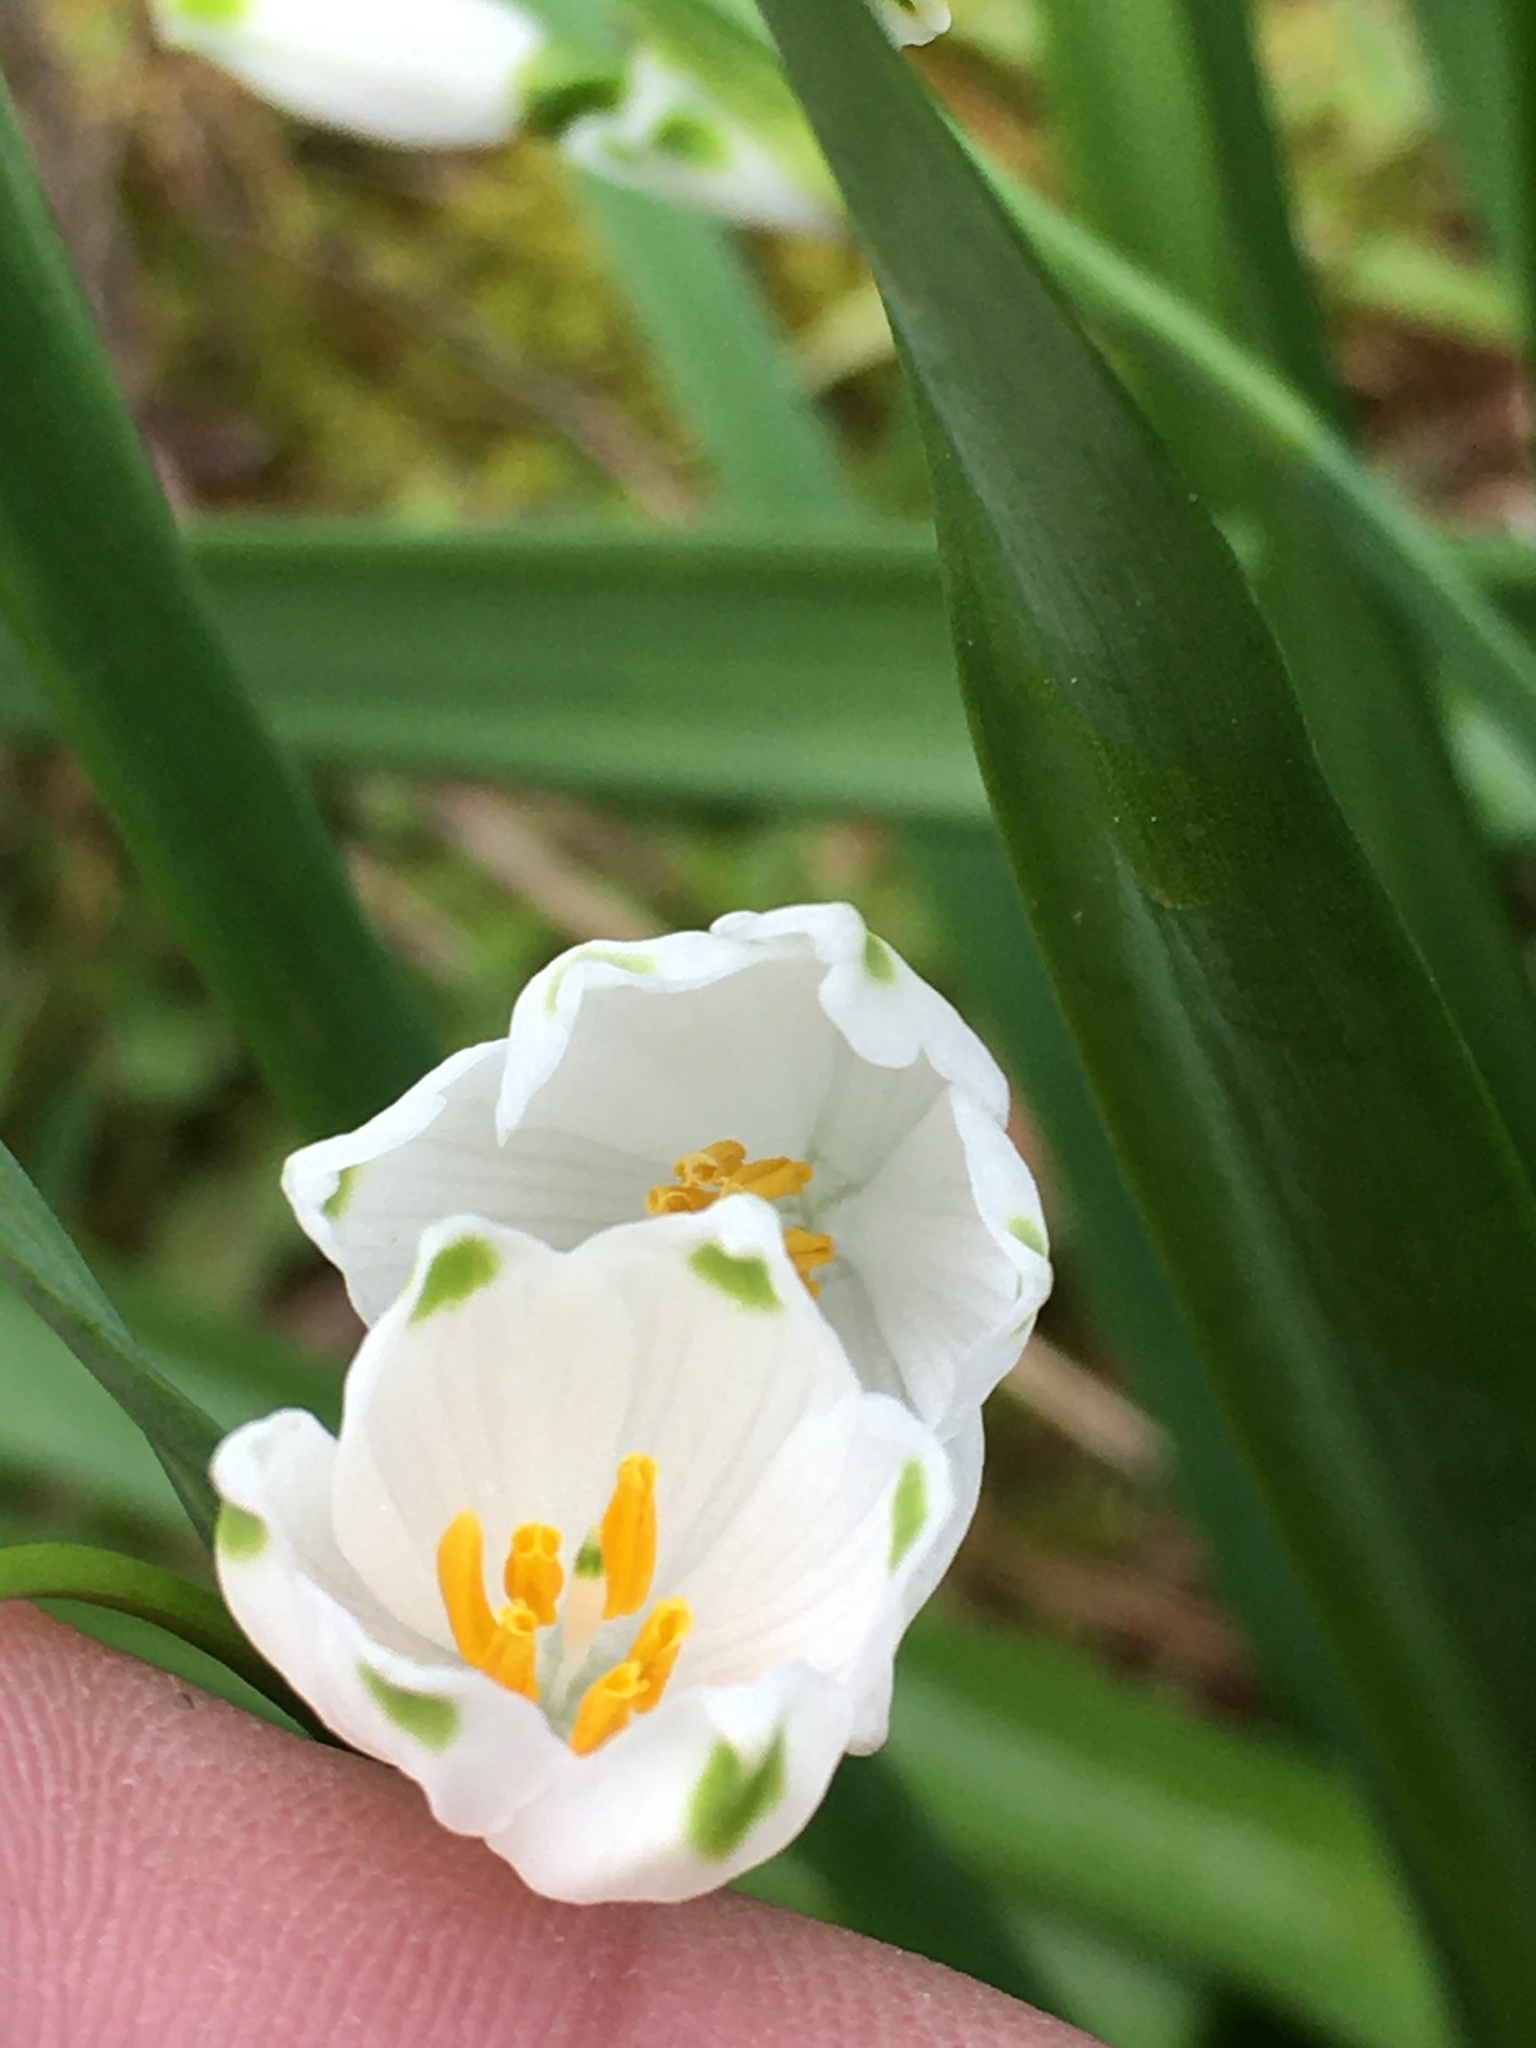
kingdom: Plantae
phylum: Tracheophyta
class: Liliopsida
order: Asparagales
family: Amaryllidaceae
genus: Leucojum
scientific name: Leucojum aestivum
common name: Summer snowflake
